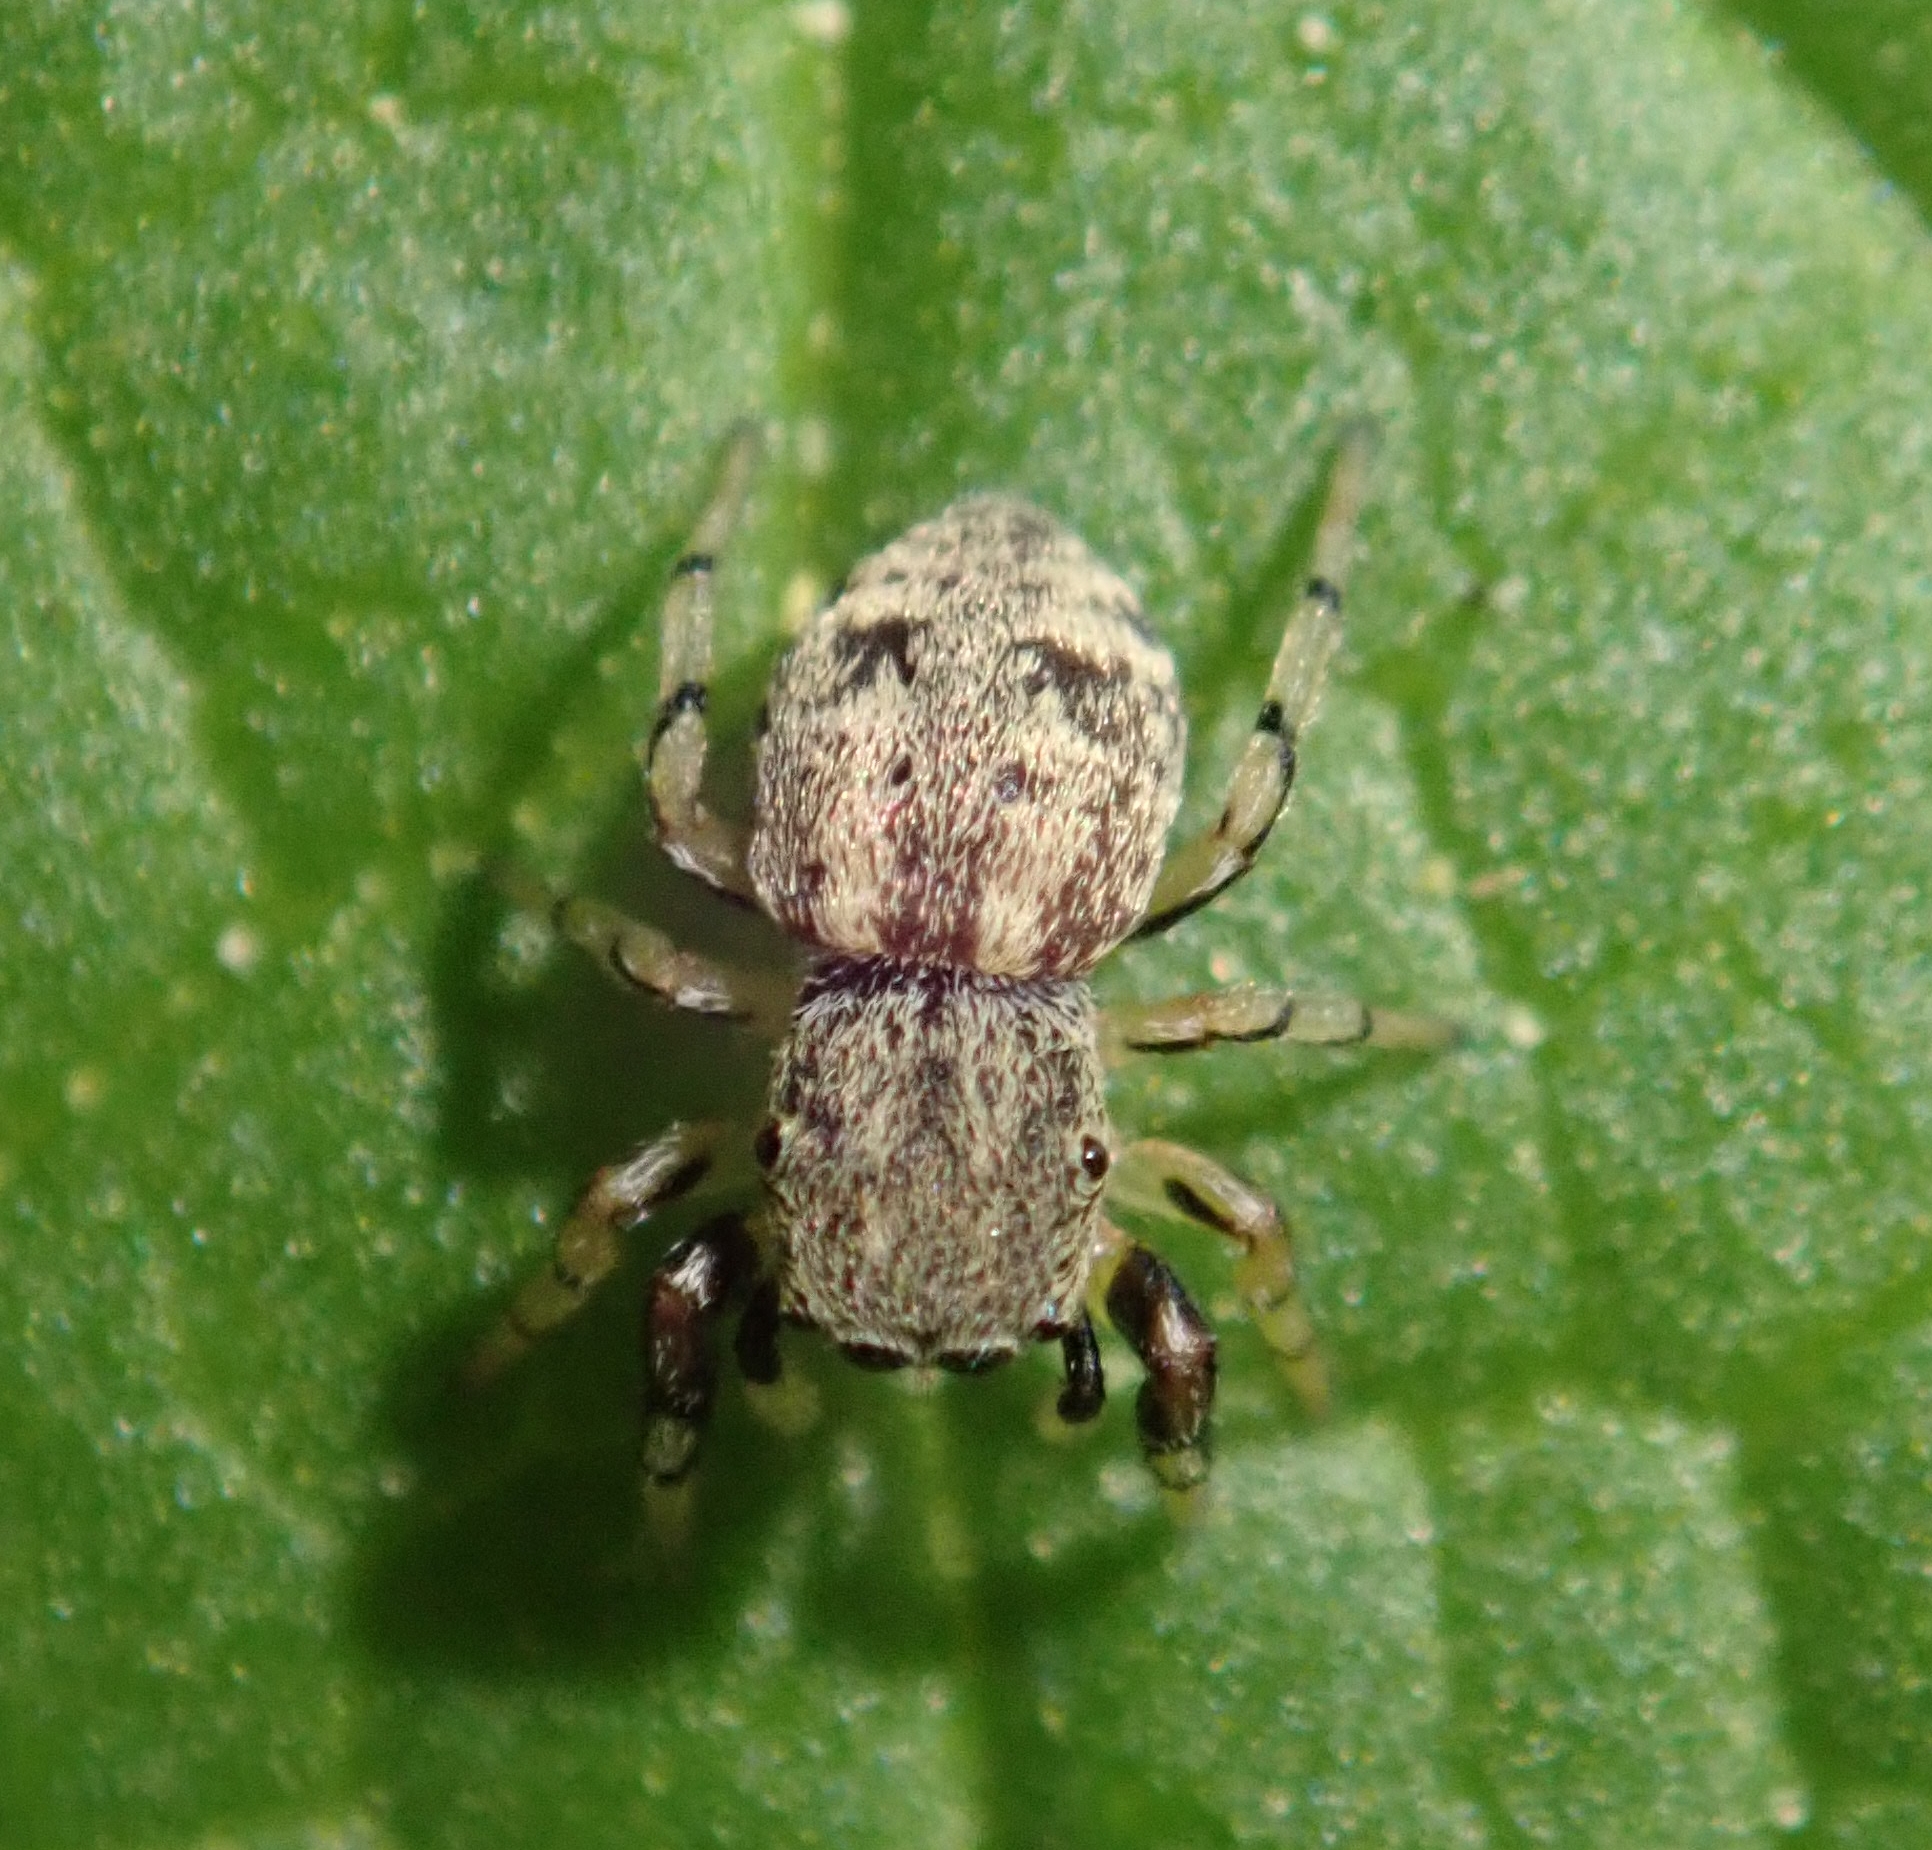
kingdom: Animalia
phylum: Arthropoda
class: Arachnida
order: Araneae
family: Salticidae
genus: Ballus
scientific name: Ballus chalybeius
